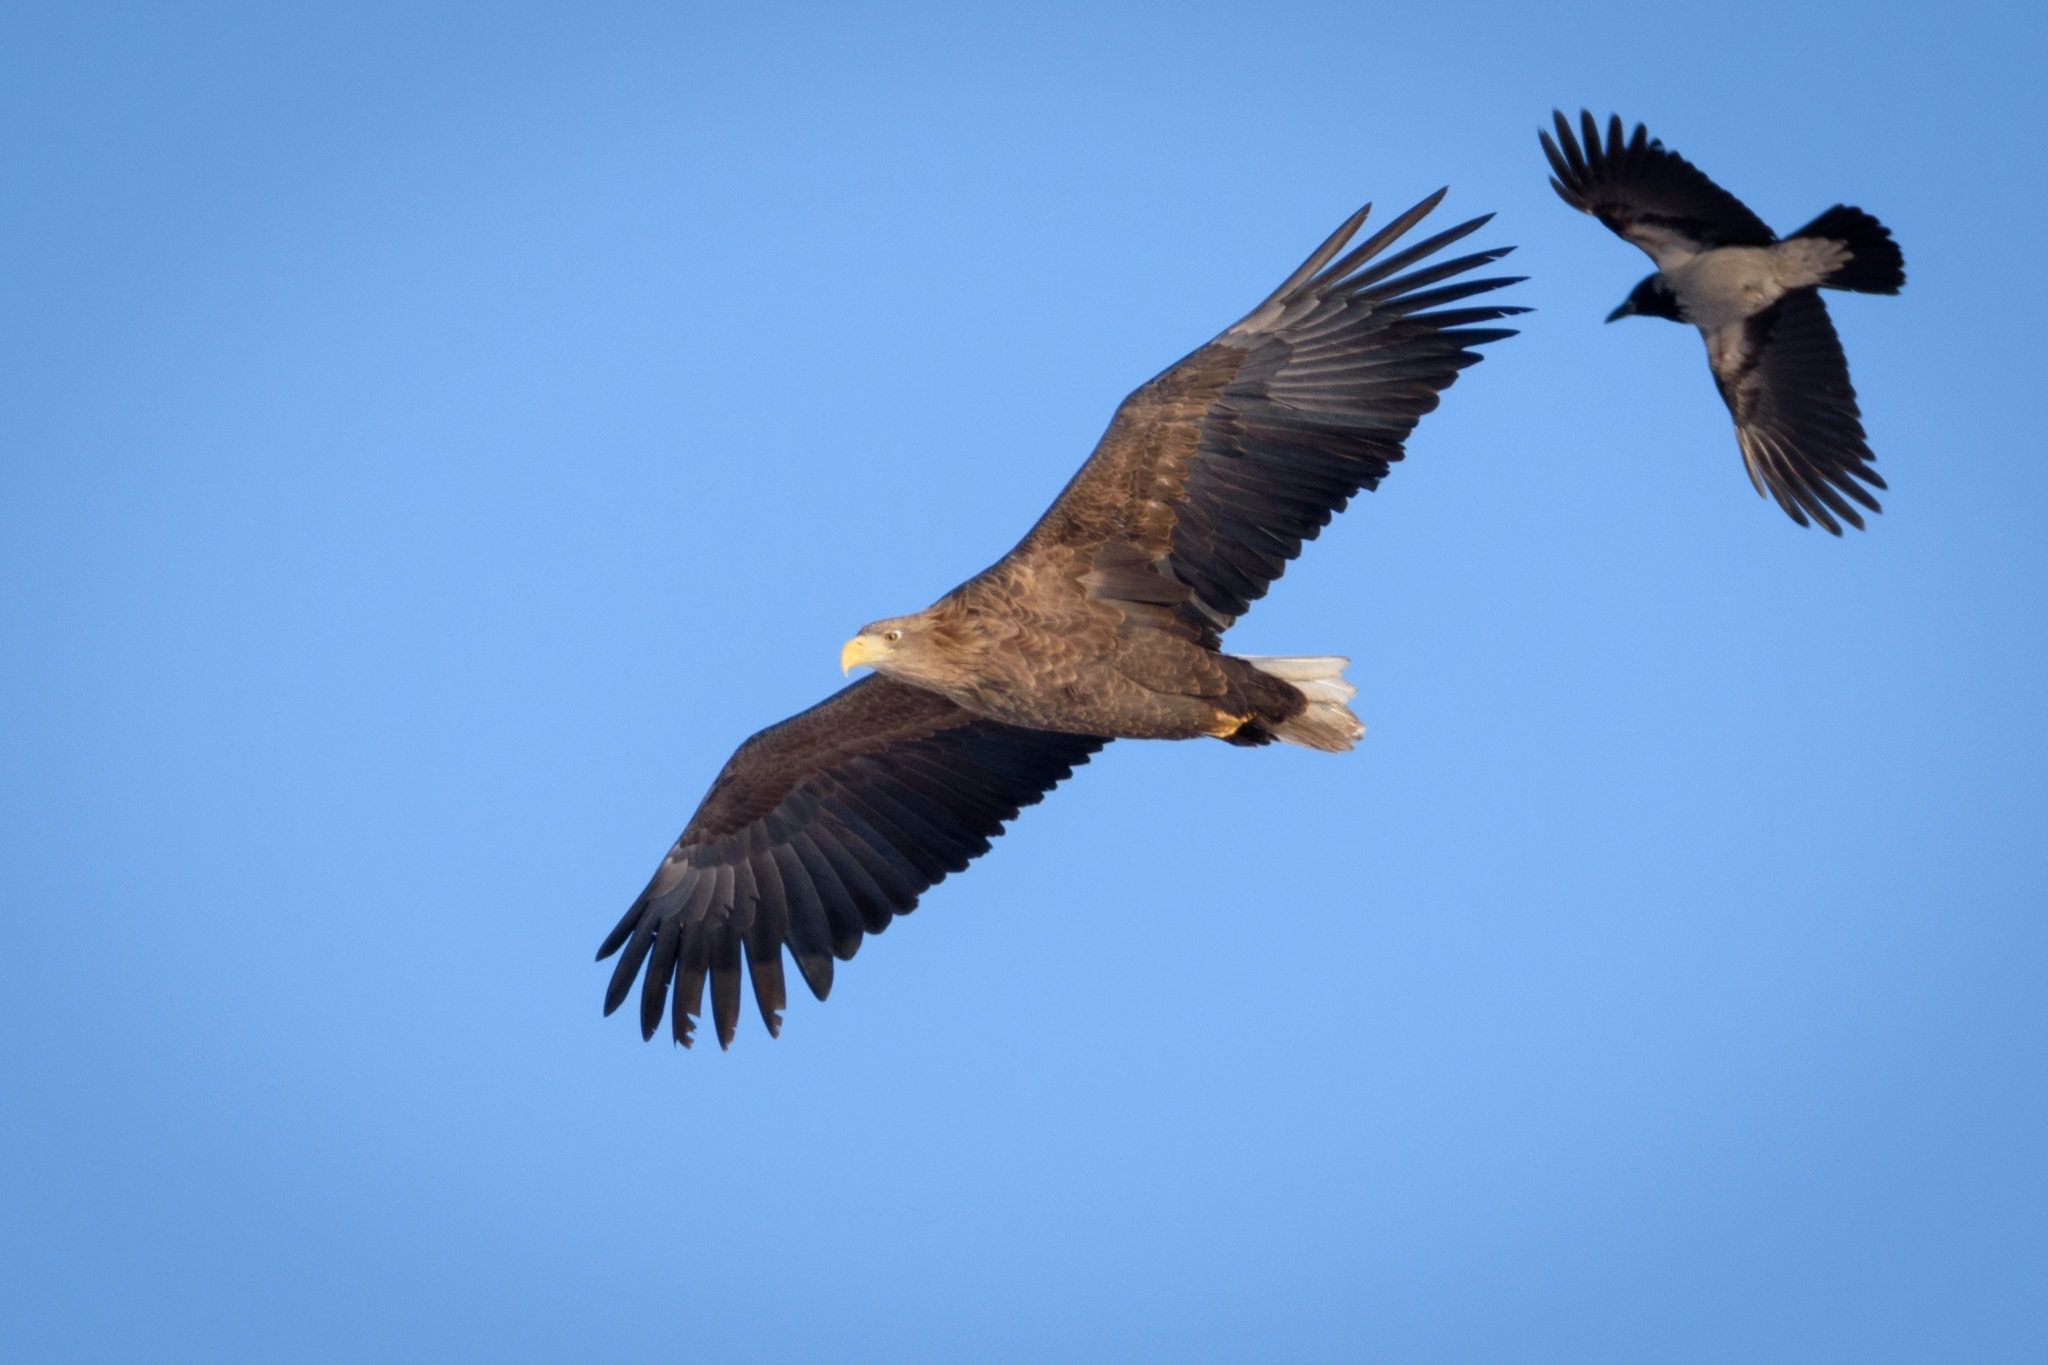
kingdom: Animalia
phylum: Chordata
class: Aves
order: Accipitriformes
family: Accipitridae
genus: Haliaeetus
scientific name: Haliaeetus albicilla
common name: White-tailed eagle
